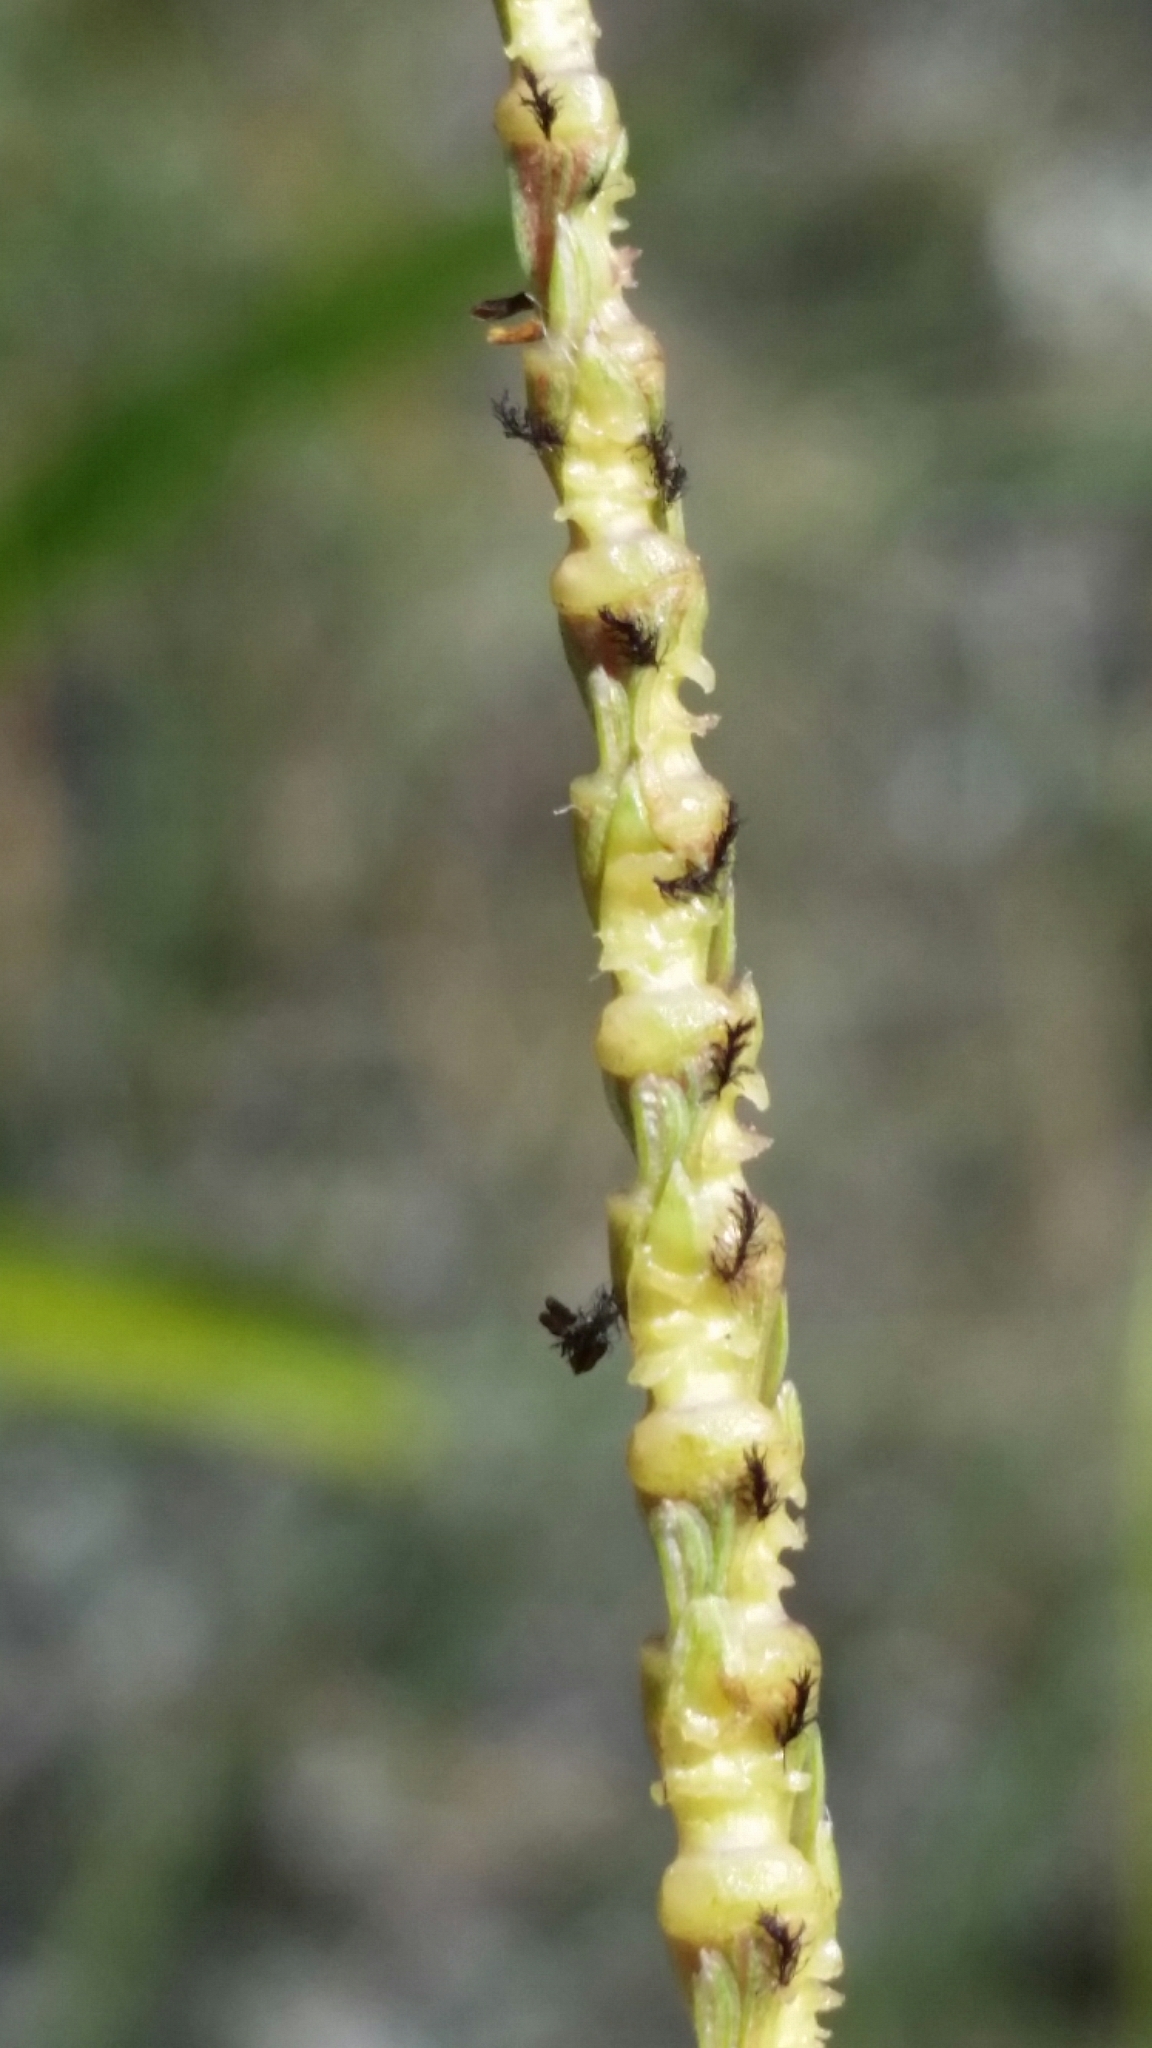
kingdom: Plantae
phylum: Tracheophyta
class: Liliopsida
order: Poales
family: Poaceae
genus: Rottboellia
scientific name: Rottboellia rugosa
